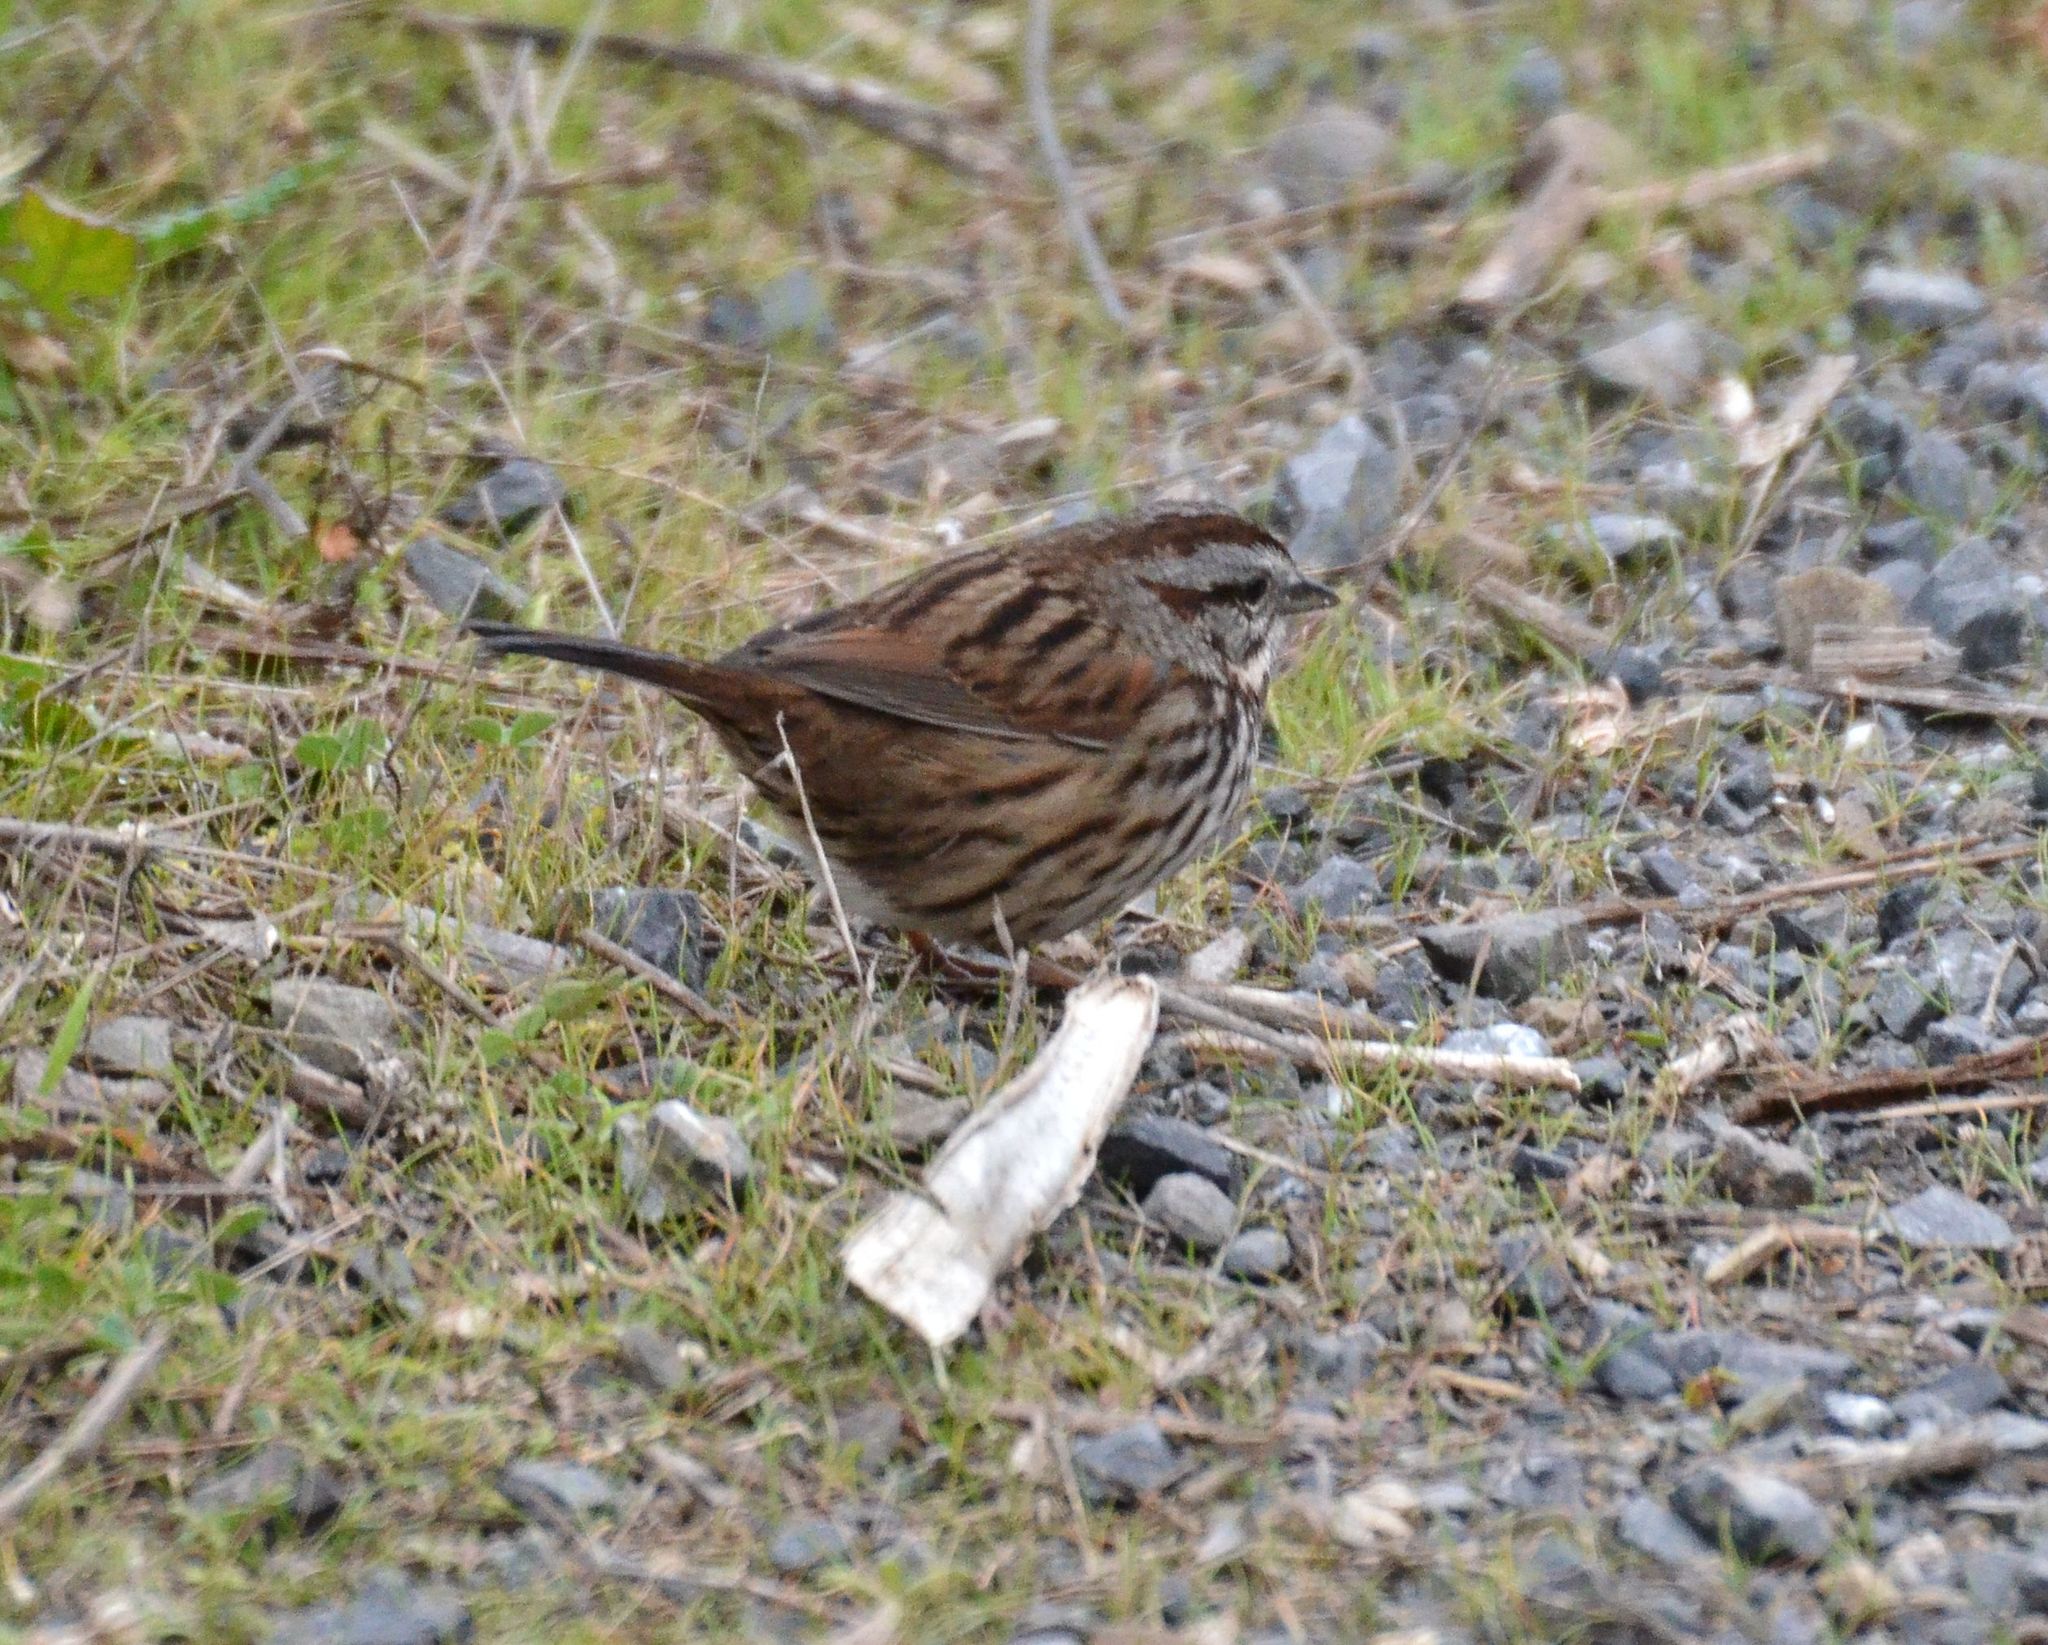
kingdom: Animalia
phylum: Chordata
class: Aves
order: Passeriformes
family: Passerellidae
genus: Melospiza
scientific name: Melospiza melodia
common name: Song sparrow
